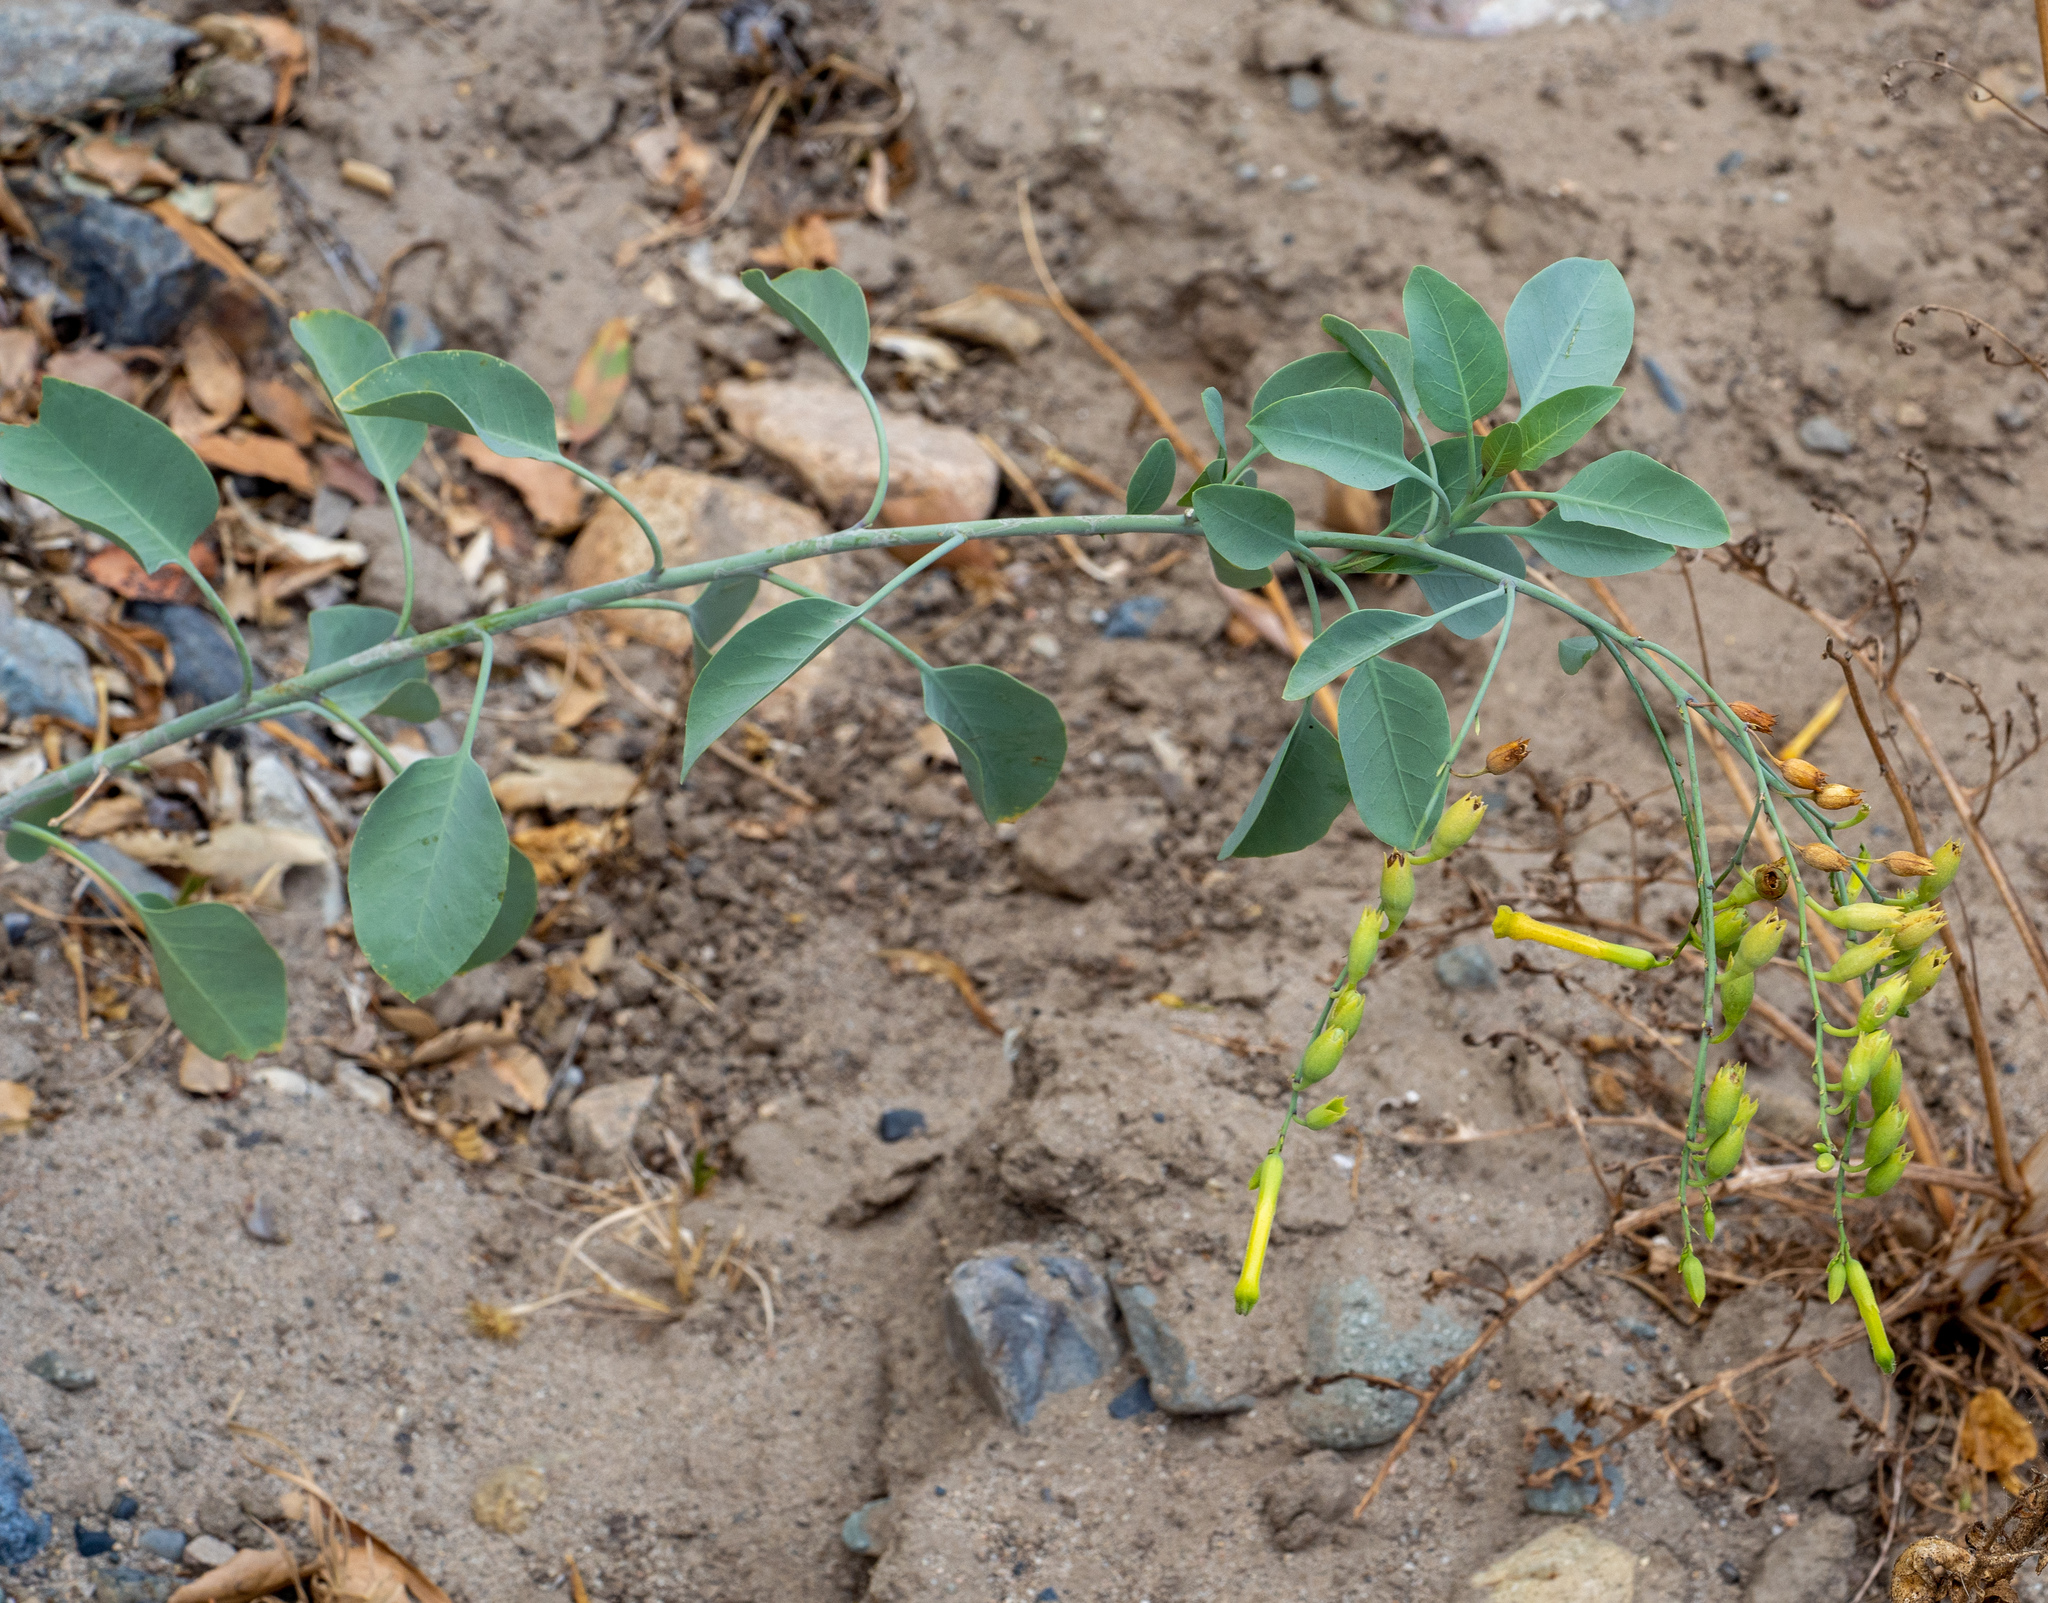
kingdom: Plantae
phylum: Tracheophyta
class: Magnoliopsida
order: Solanales
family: Solanaceae
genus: Nicotiana
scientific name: Nicotiana glauca
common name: Tree tobacco
